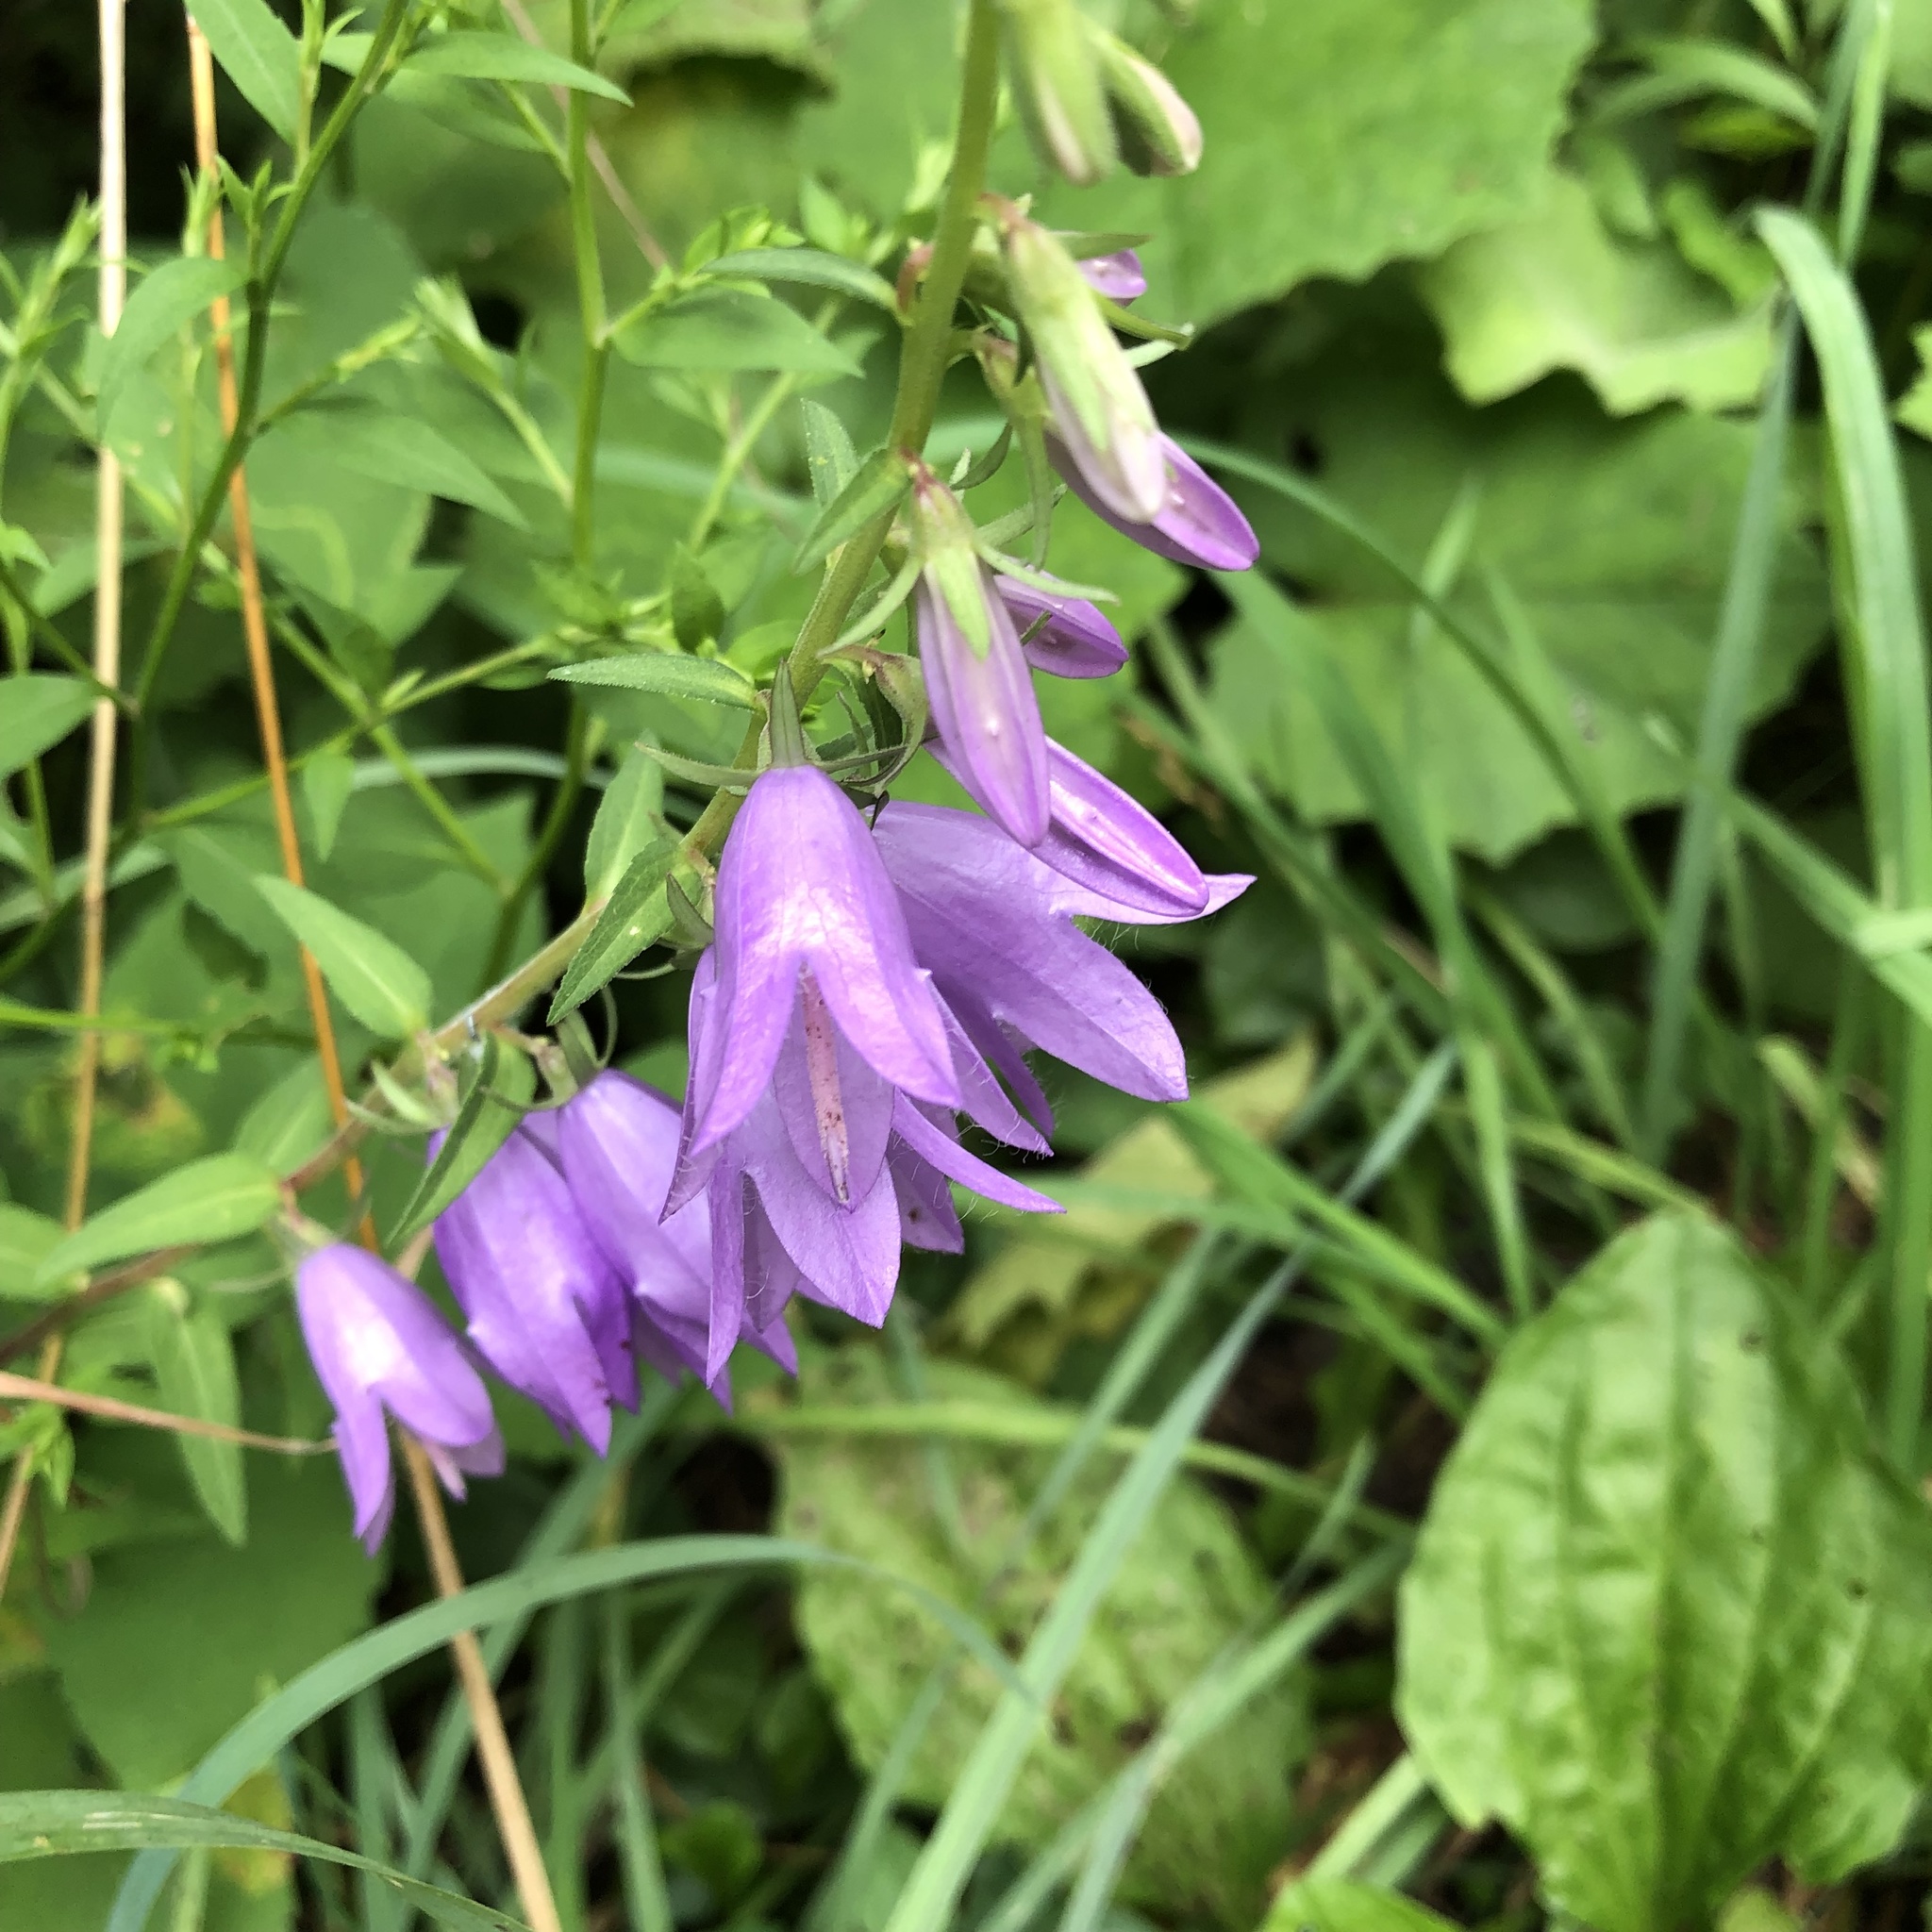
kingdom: Plantae
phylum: Tracheophyta
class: Magnoliopsida
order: Asterales
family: Campanulaceae
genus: Campanula
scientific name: Campanula rapunculoides
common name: Creeping bellflower
